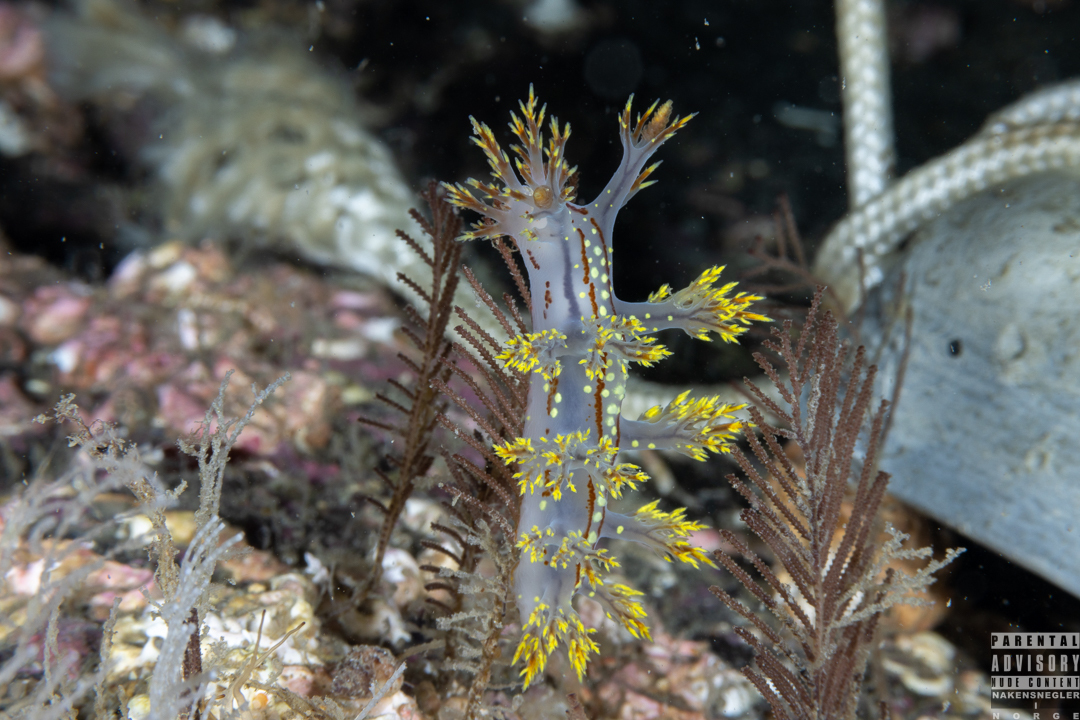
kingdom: Animalia
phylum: Mollusca
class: Gastropoda
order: Nudibranchia
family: Dendronotidae
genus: Dendronotus
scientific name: Dendronotus yrjargul
